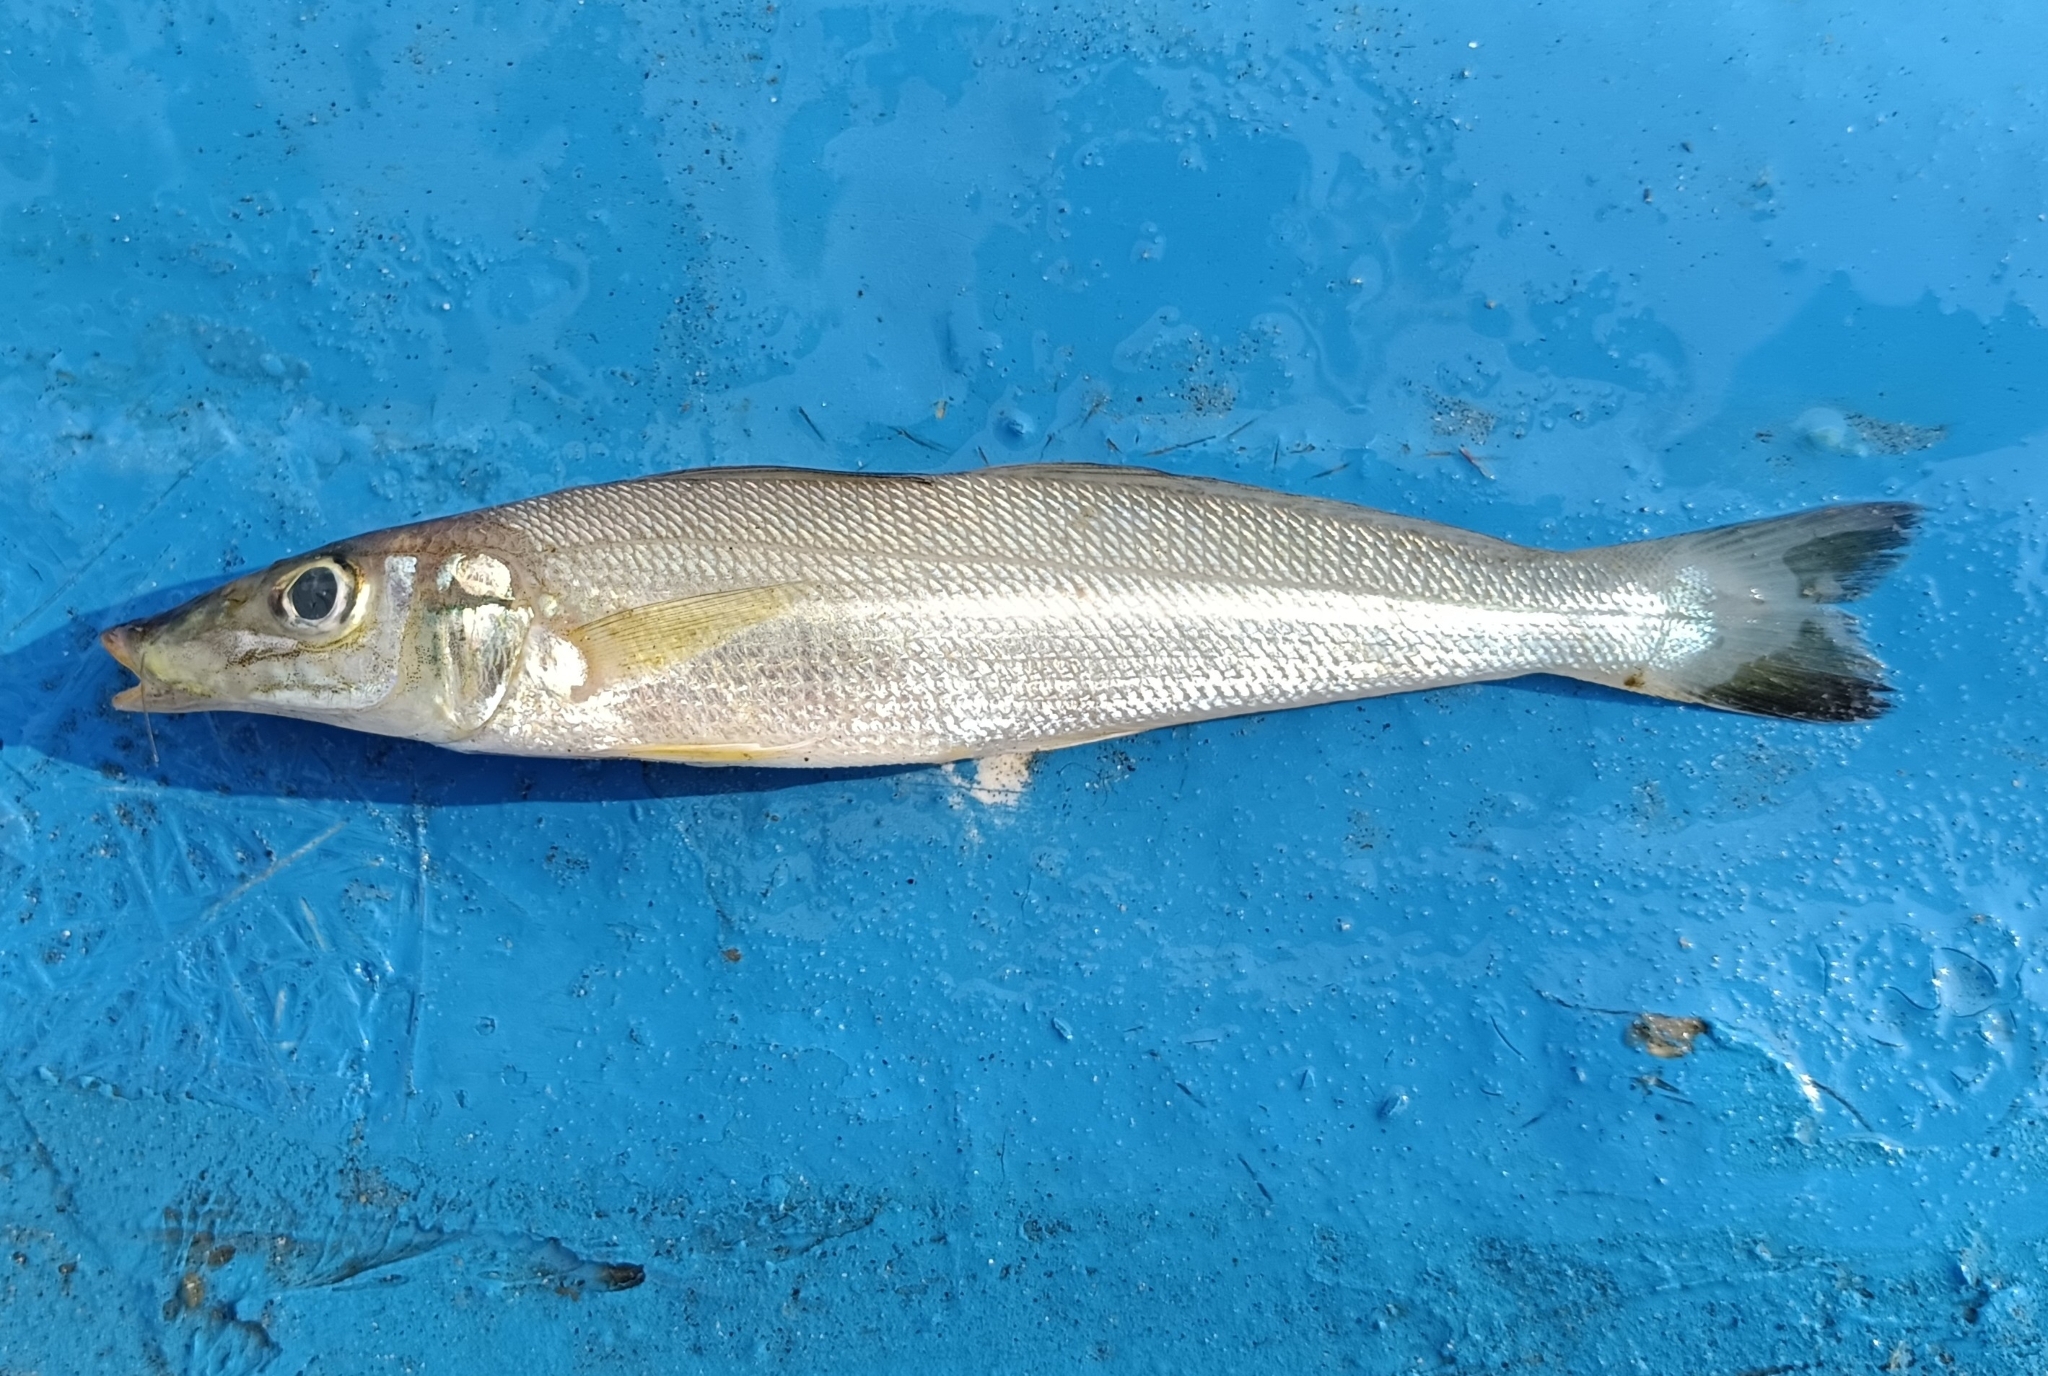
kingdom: Animalia
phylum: Chordata
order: Perciformes
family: Sillaginidae
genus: Sillago
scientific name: Sillago sihama
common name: Silver sillago
